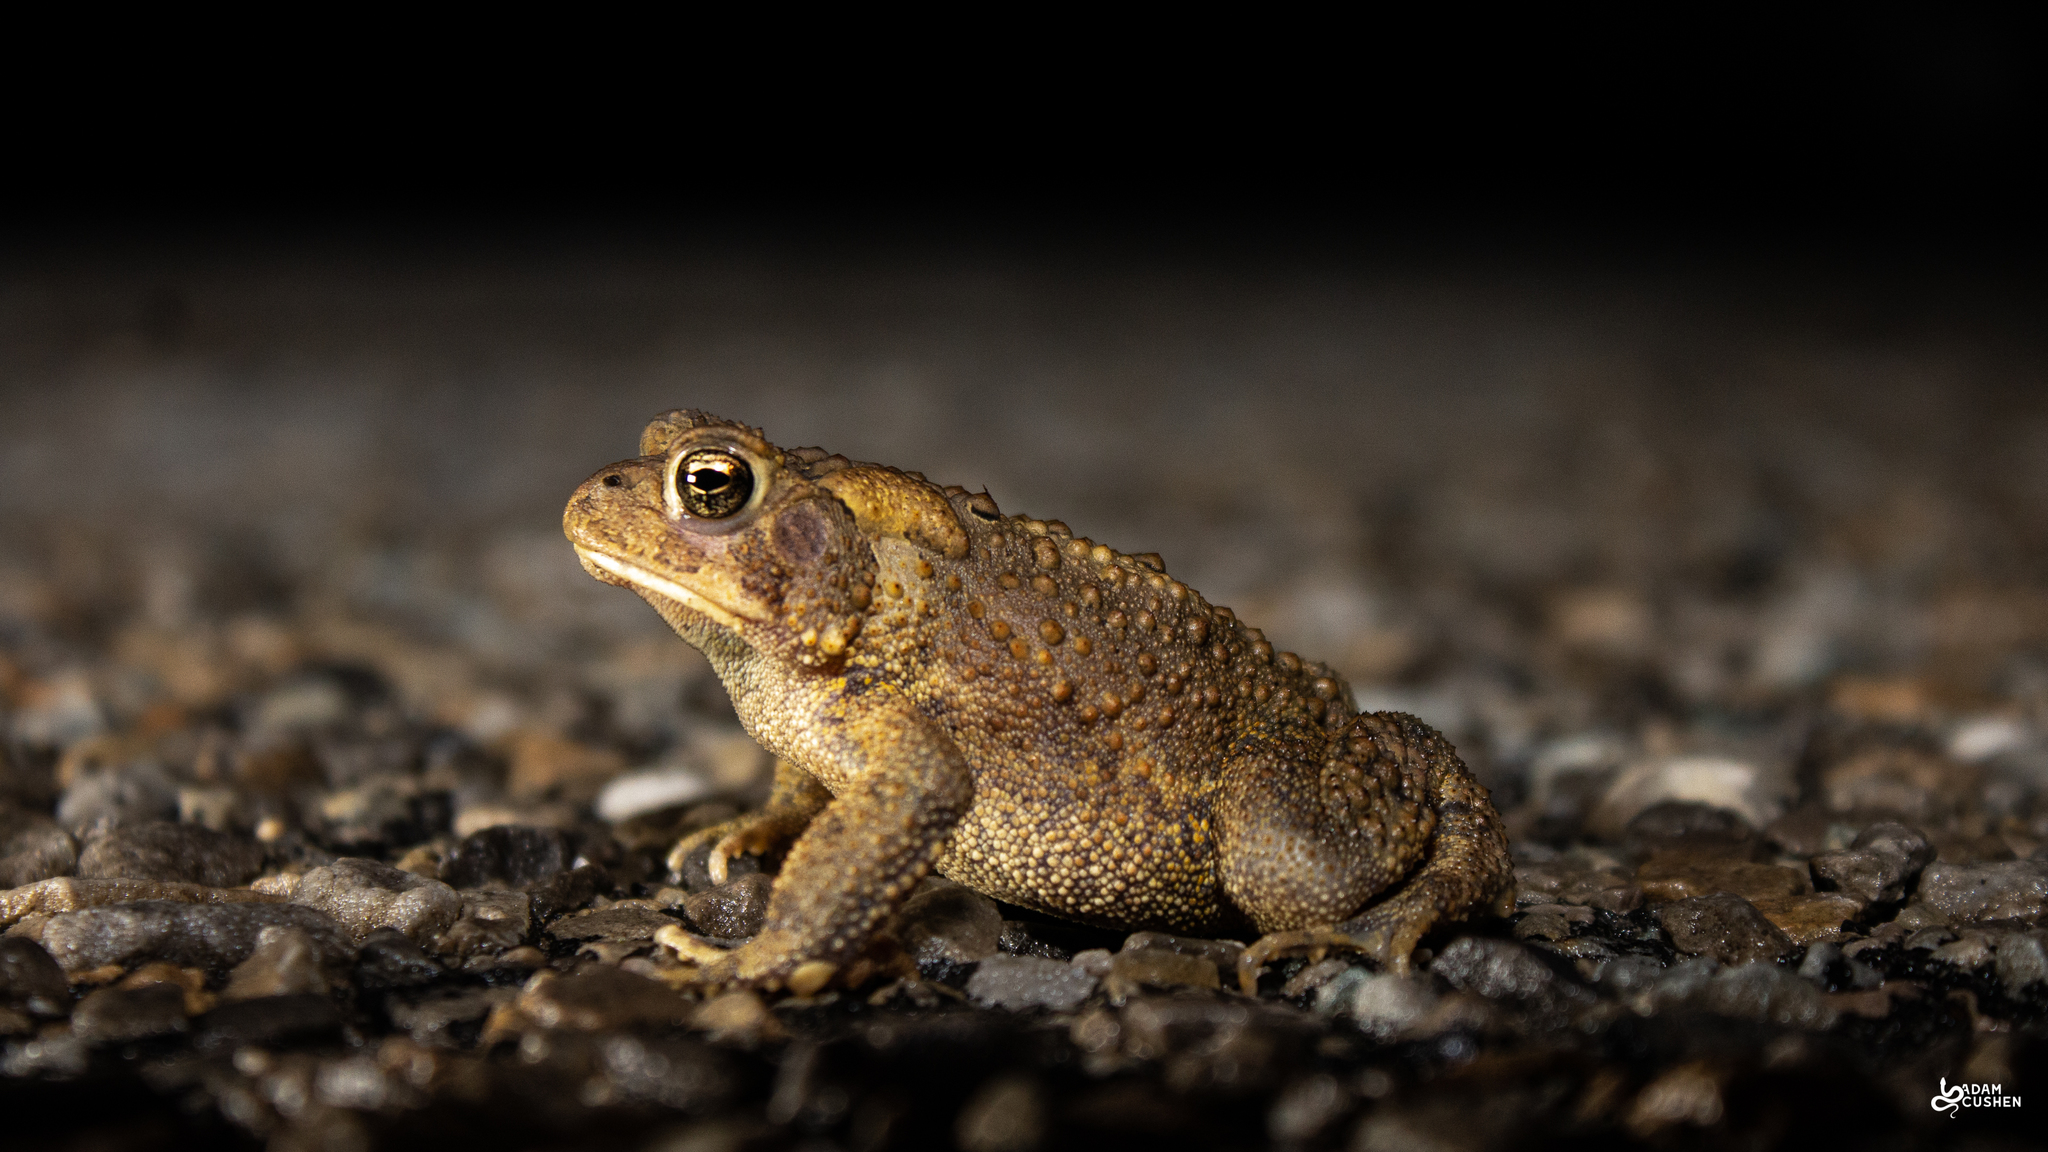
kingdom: Animalia
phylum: Chordata
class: Amphibia
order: Anura
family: Bufonidae
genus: Anaxyrus
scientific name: Anaxyrus americanus
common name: American toad
